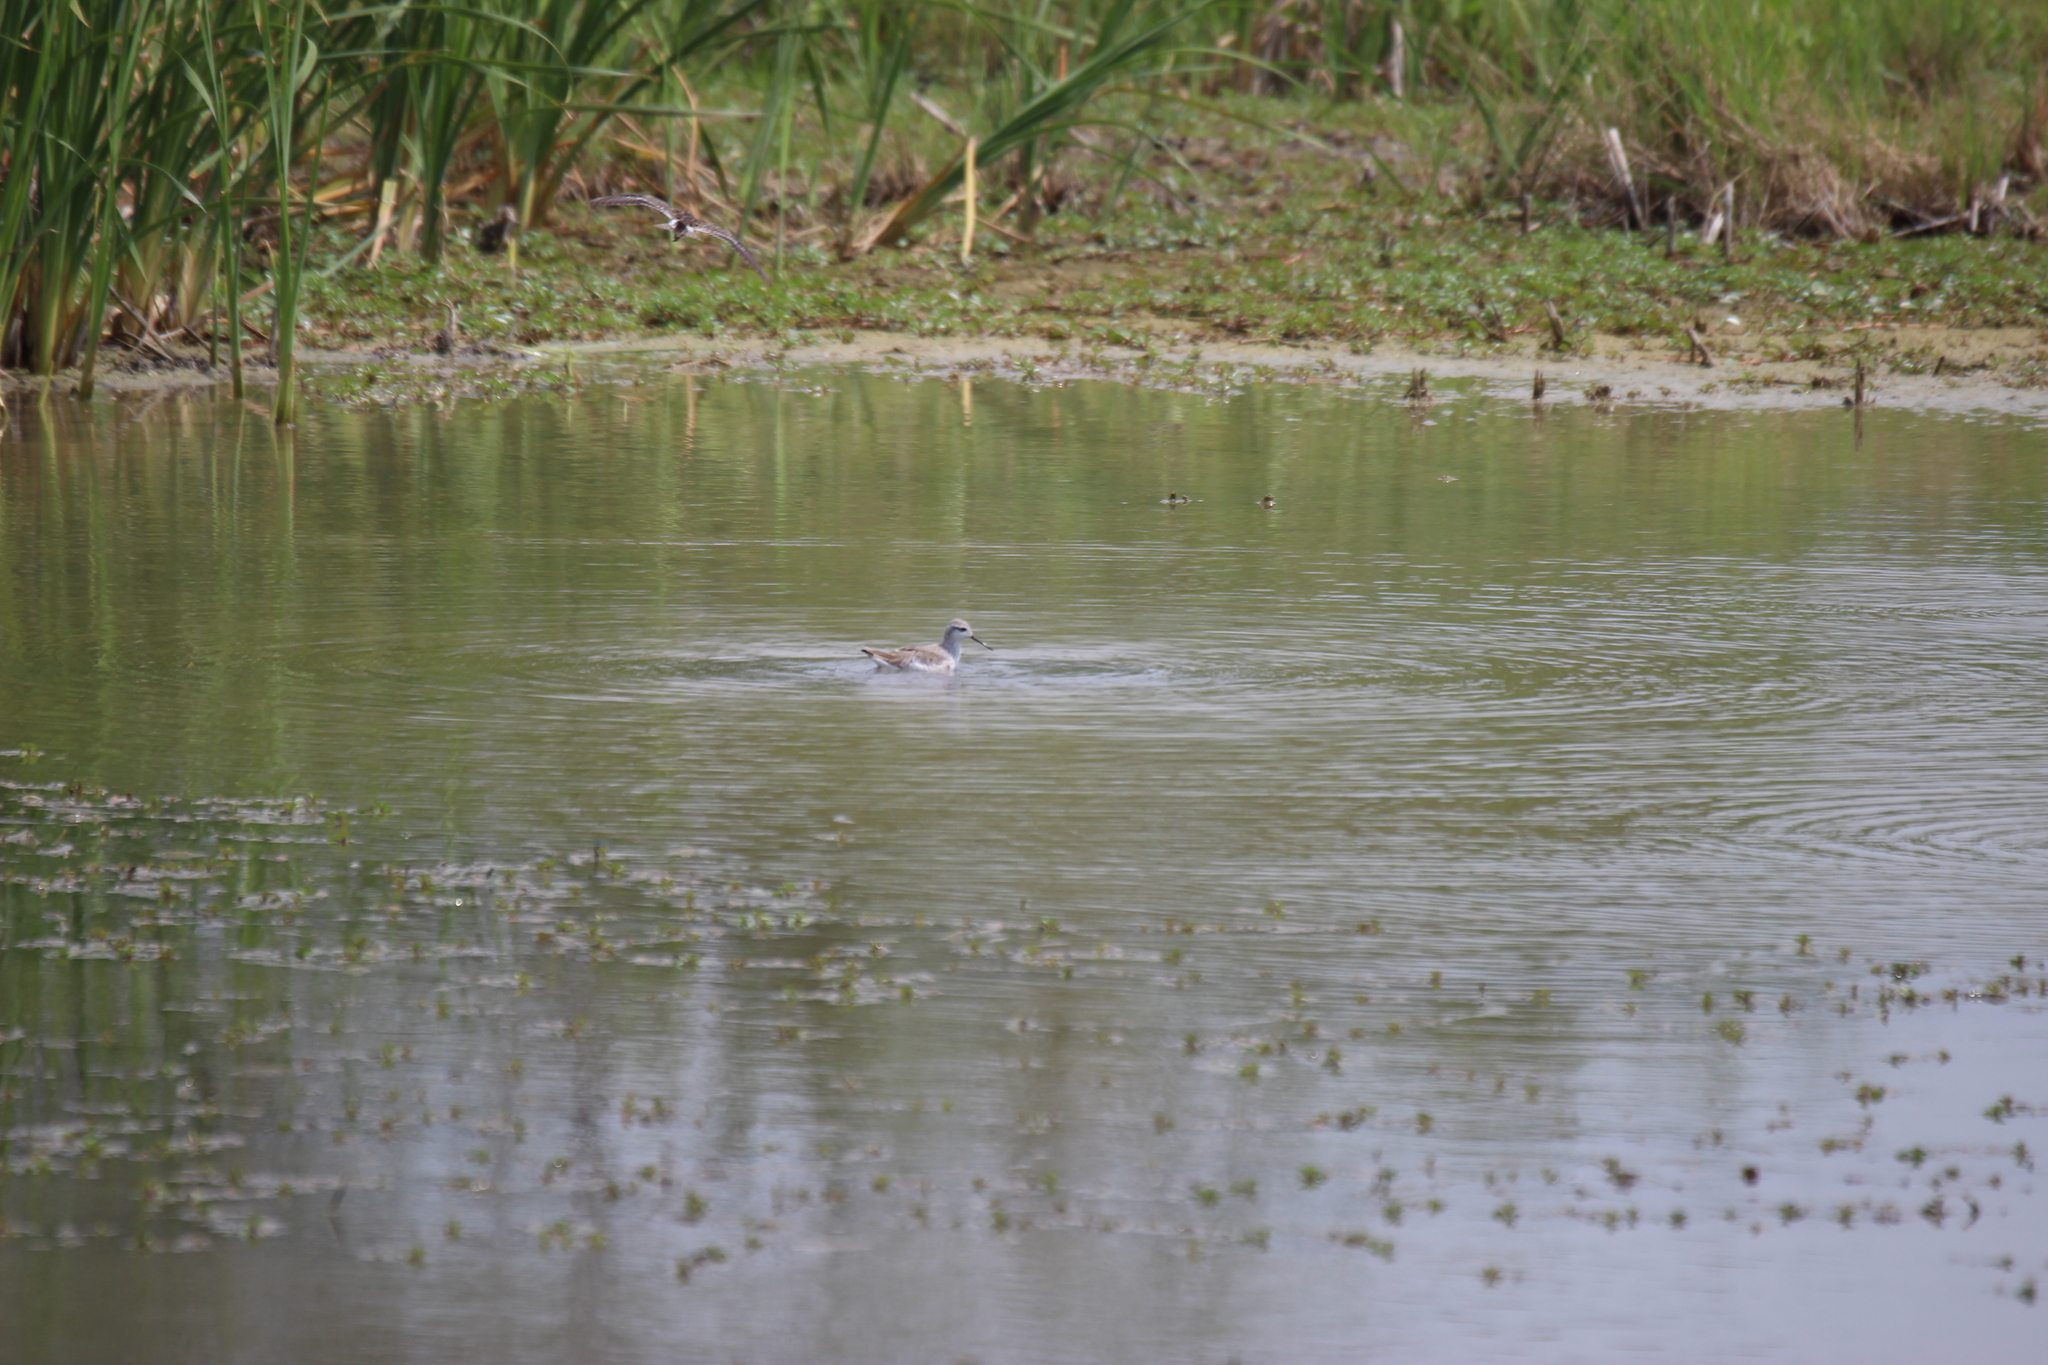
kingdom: Animalia
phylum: Chordata
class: Aves
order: Charadriiformes
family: Scolopacidae
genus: Phalaropus
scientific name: Phalaropus tricolor
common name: Wilson's phalarope
